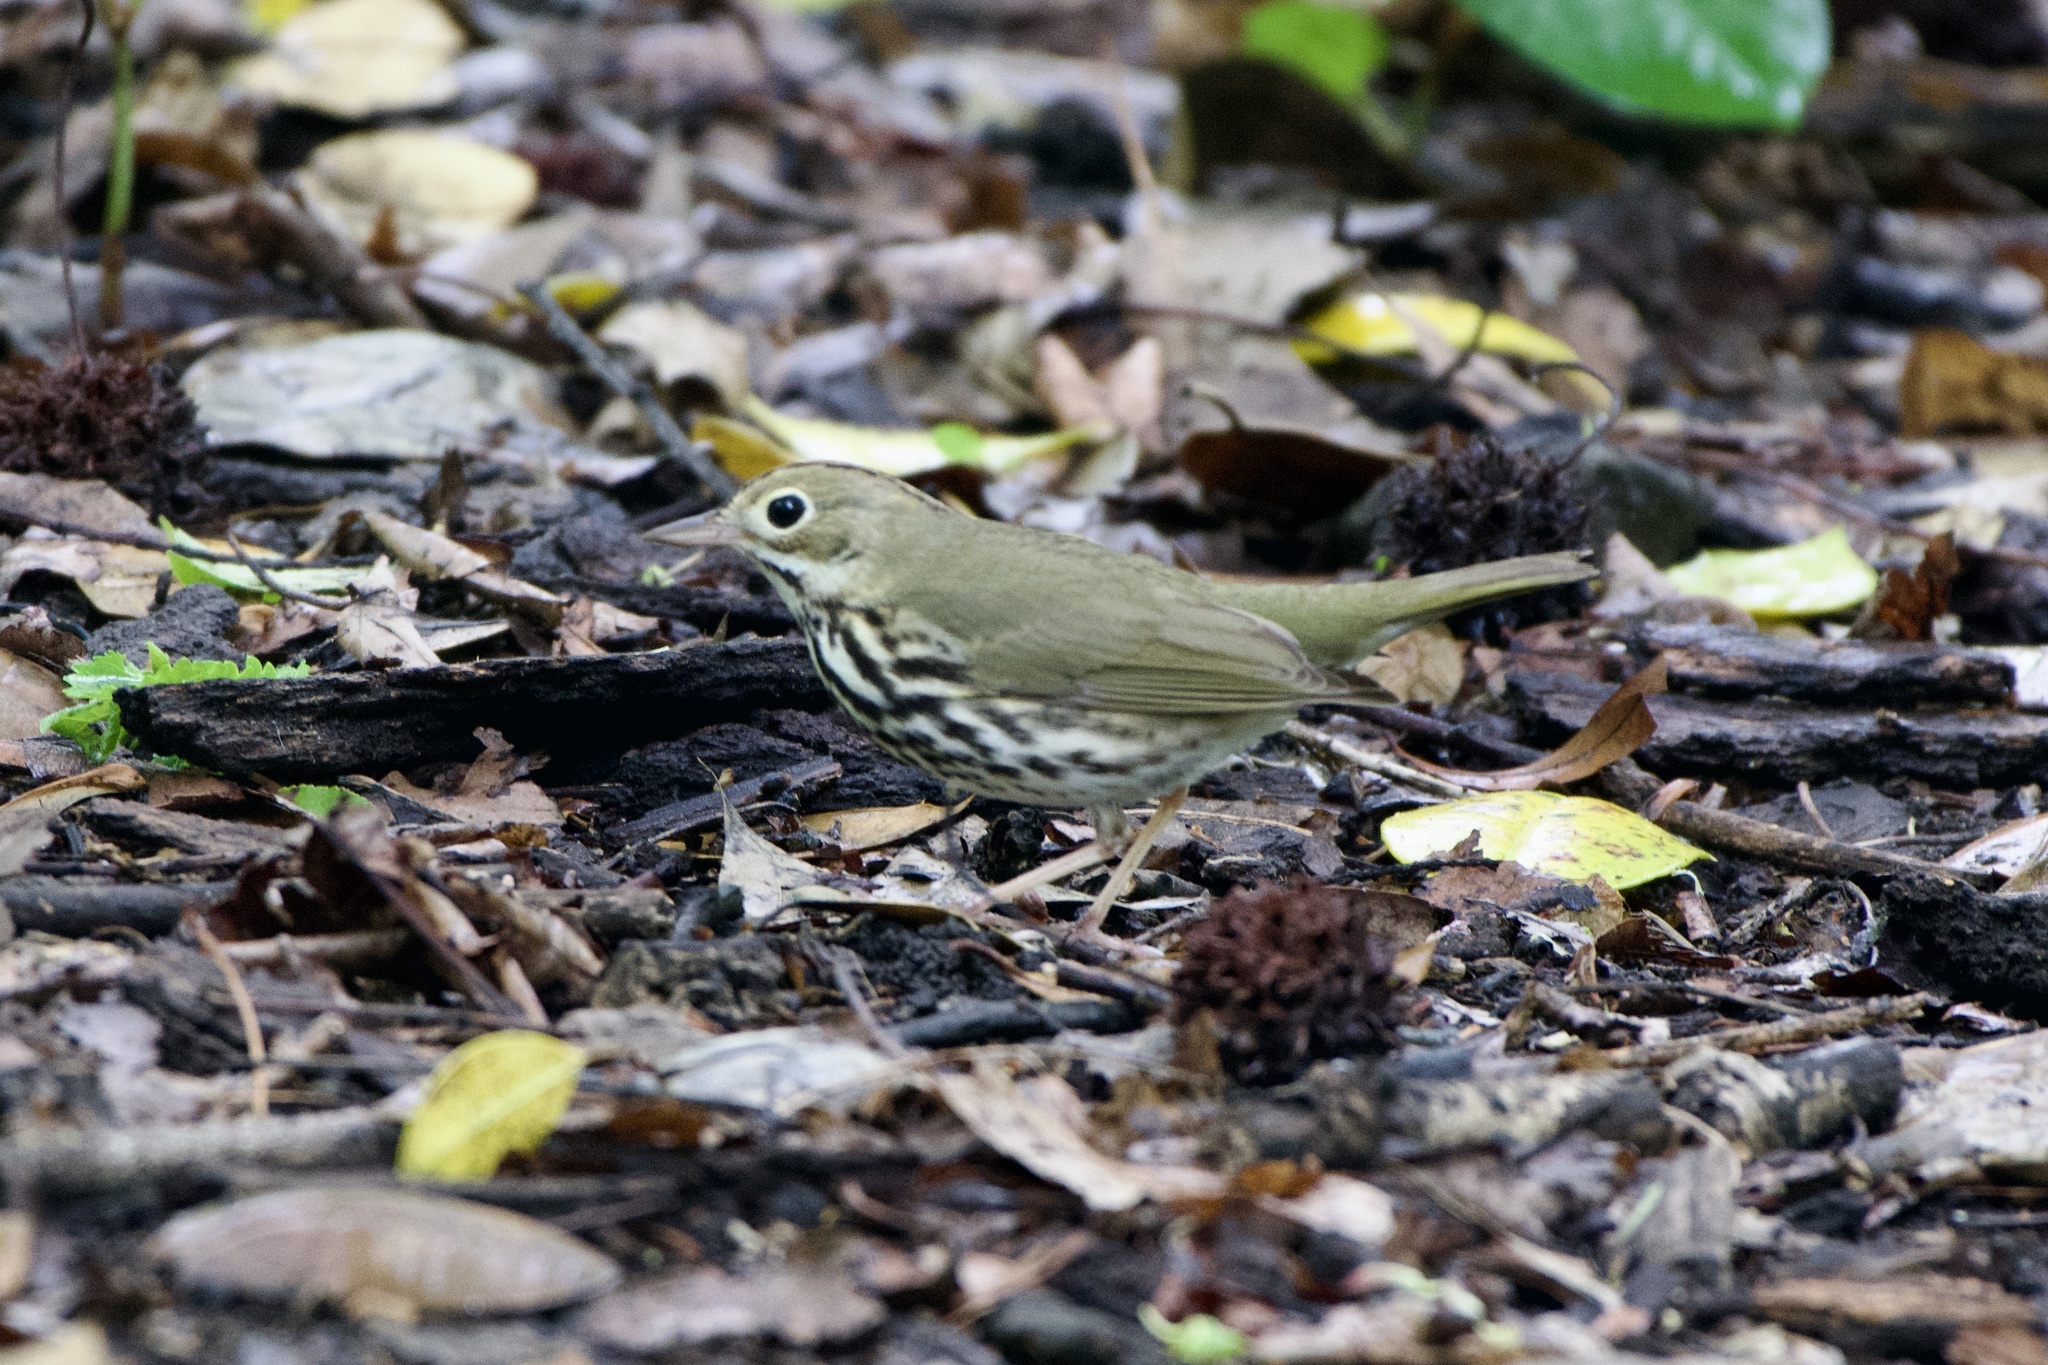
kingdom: Animalia
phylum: Chordata
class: Aves
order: Passeriformes
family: Parulidae
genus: Seiurus
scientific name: Seiurus aurocapilla
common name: Ovenbird
